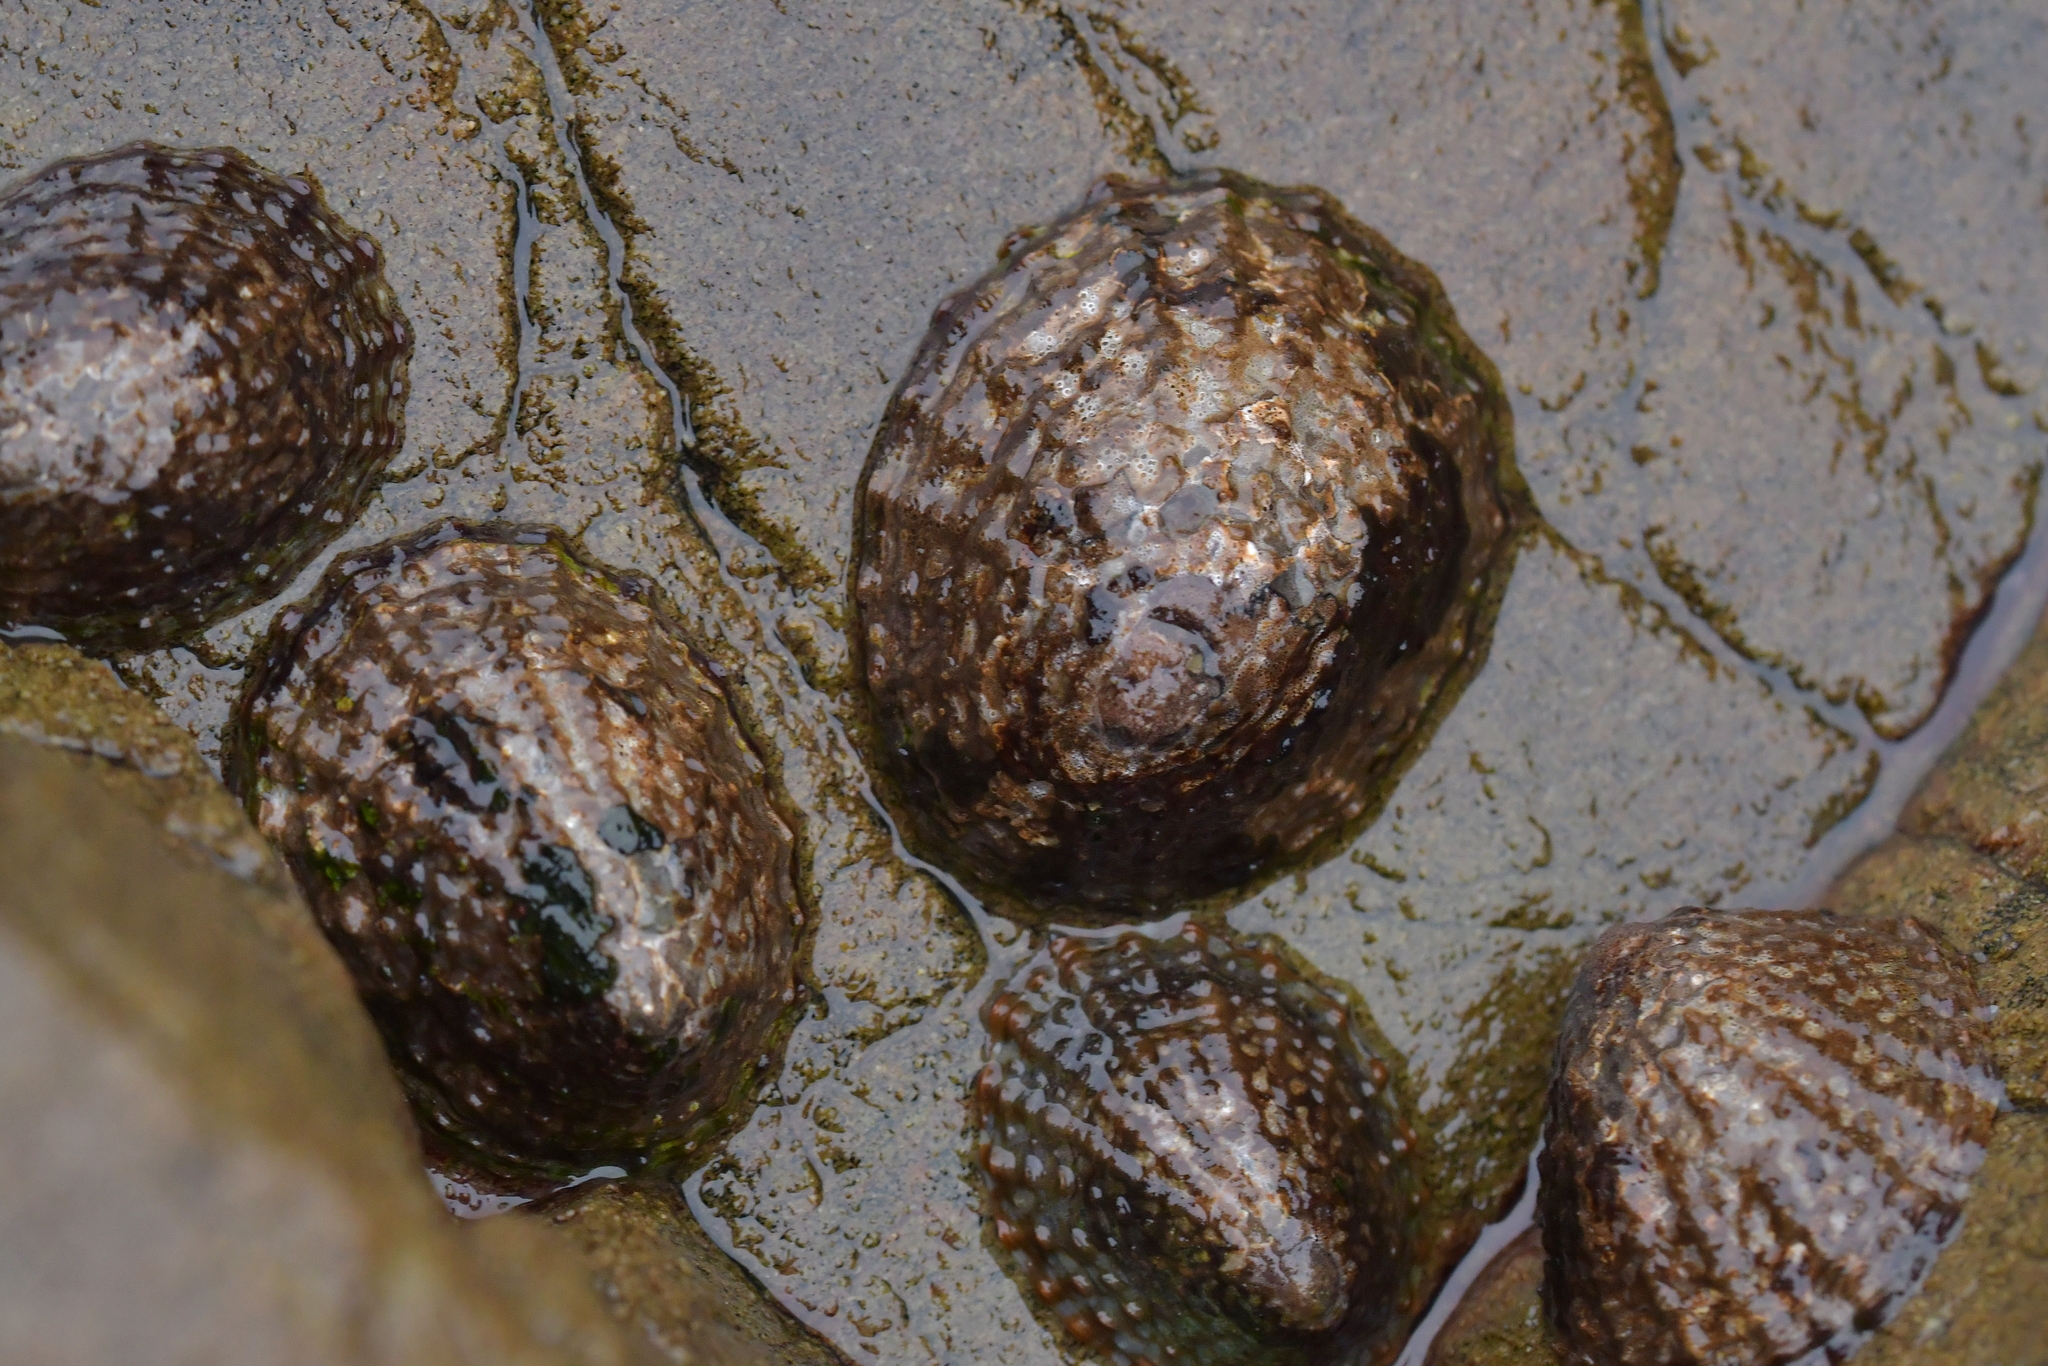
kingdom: Animalia
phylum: Mollusca
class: Gastropoda
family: Nacellidae
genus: Cellana
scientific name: Cellana denticulata
